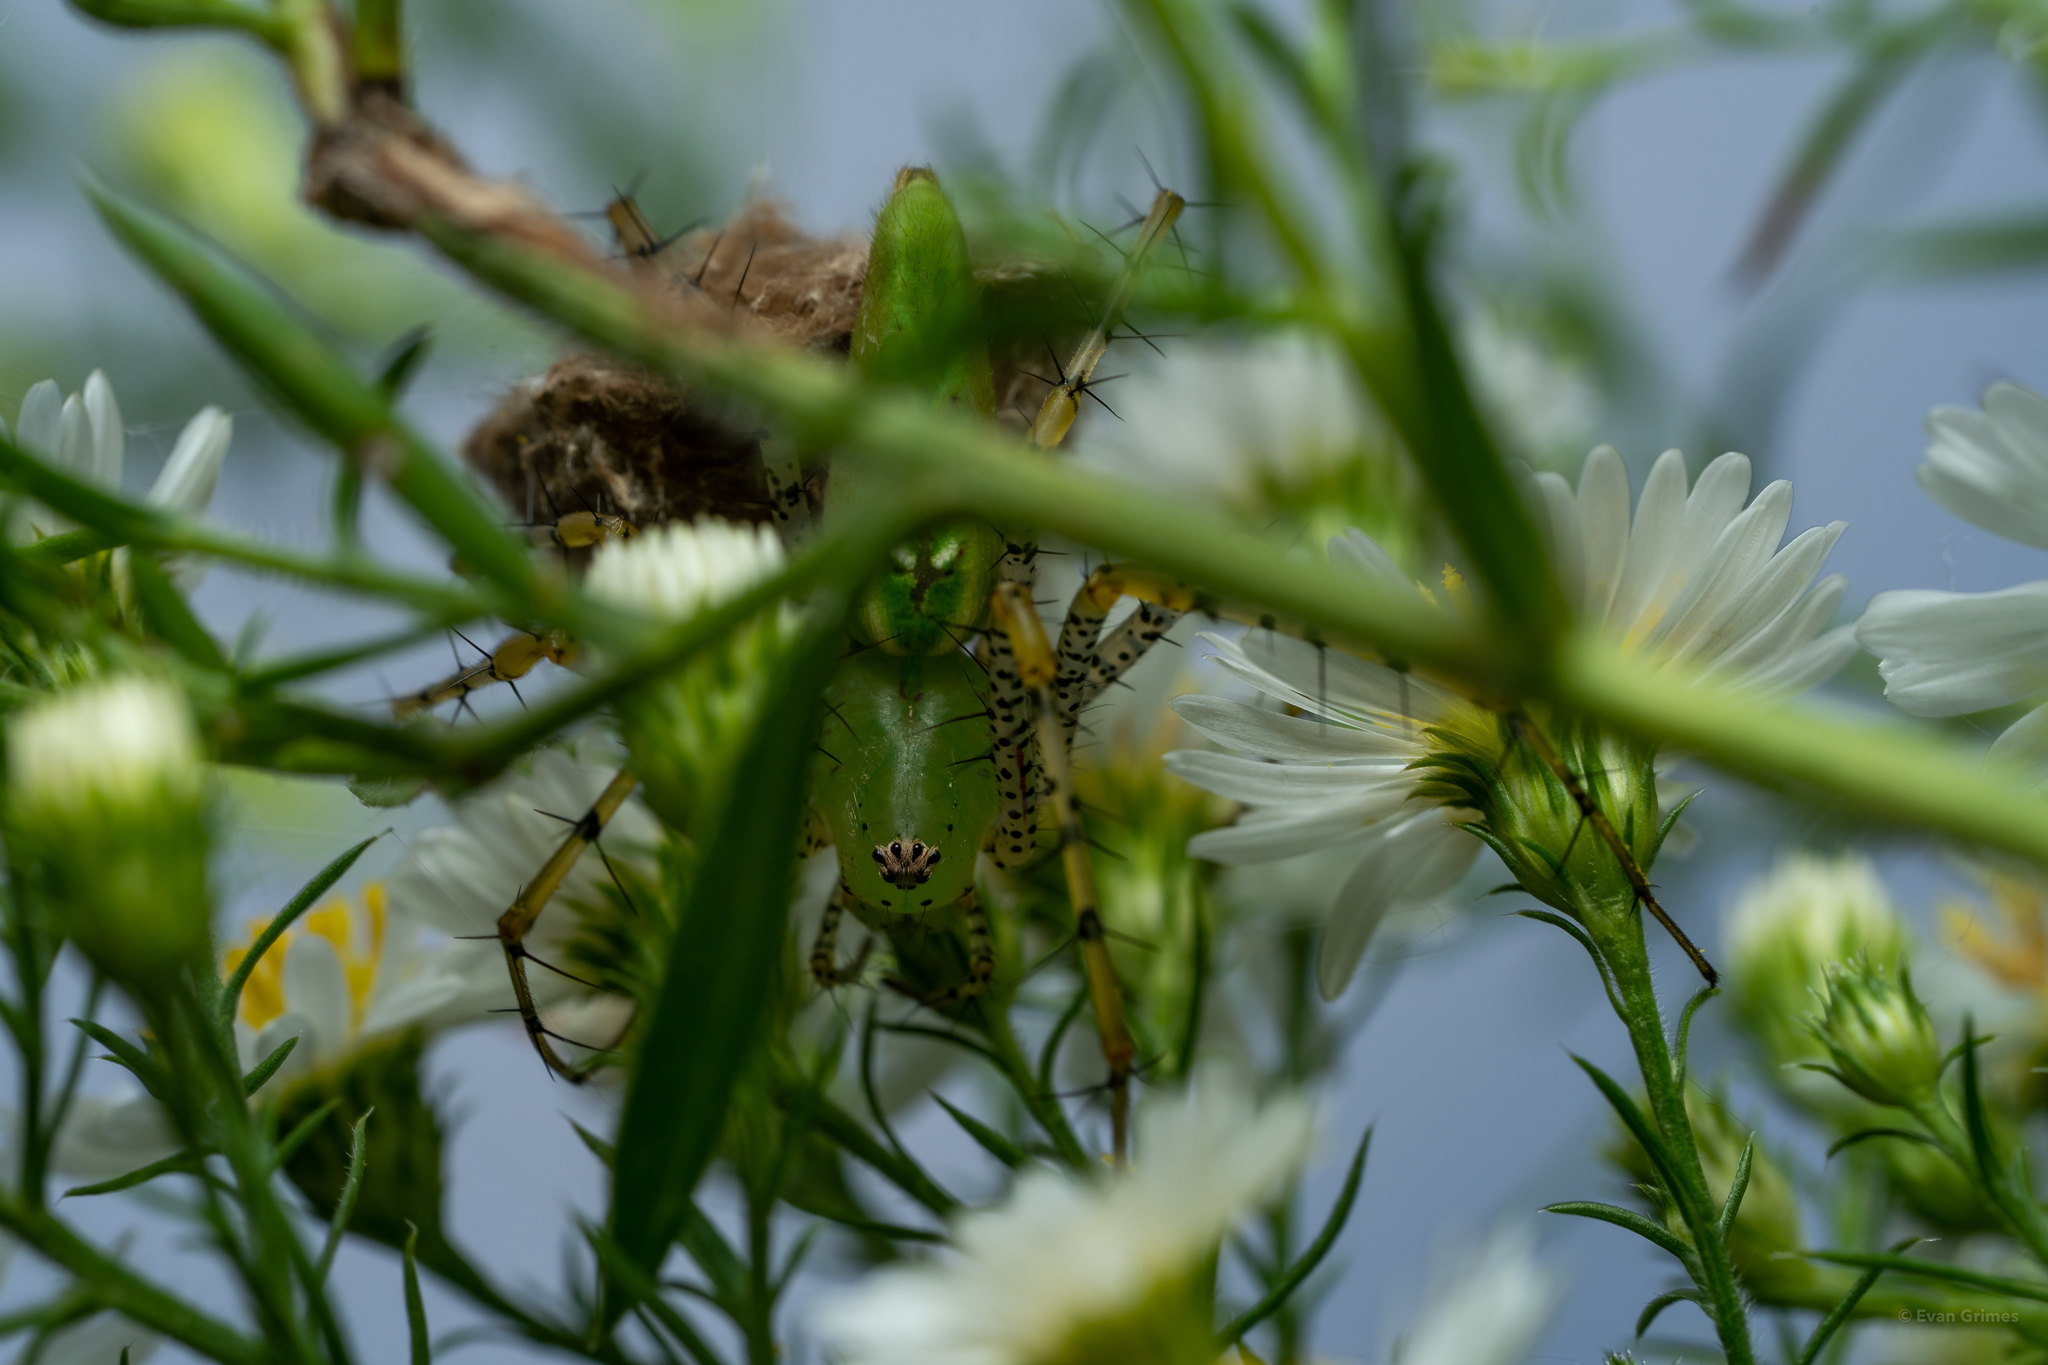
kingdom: Animalia
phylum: Arthropoda
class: Arachnida
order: Araneae
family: Oxyopidae
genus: Peucetia
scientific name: Peucetia viridans
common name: Lynx spiders
